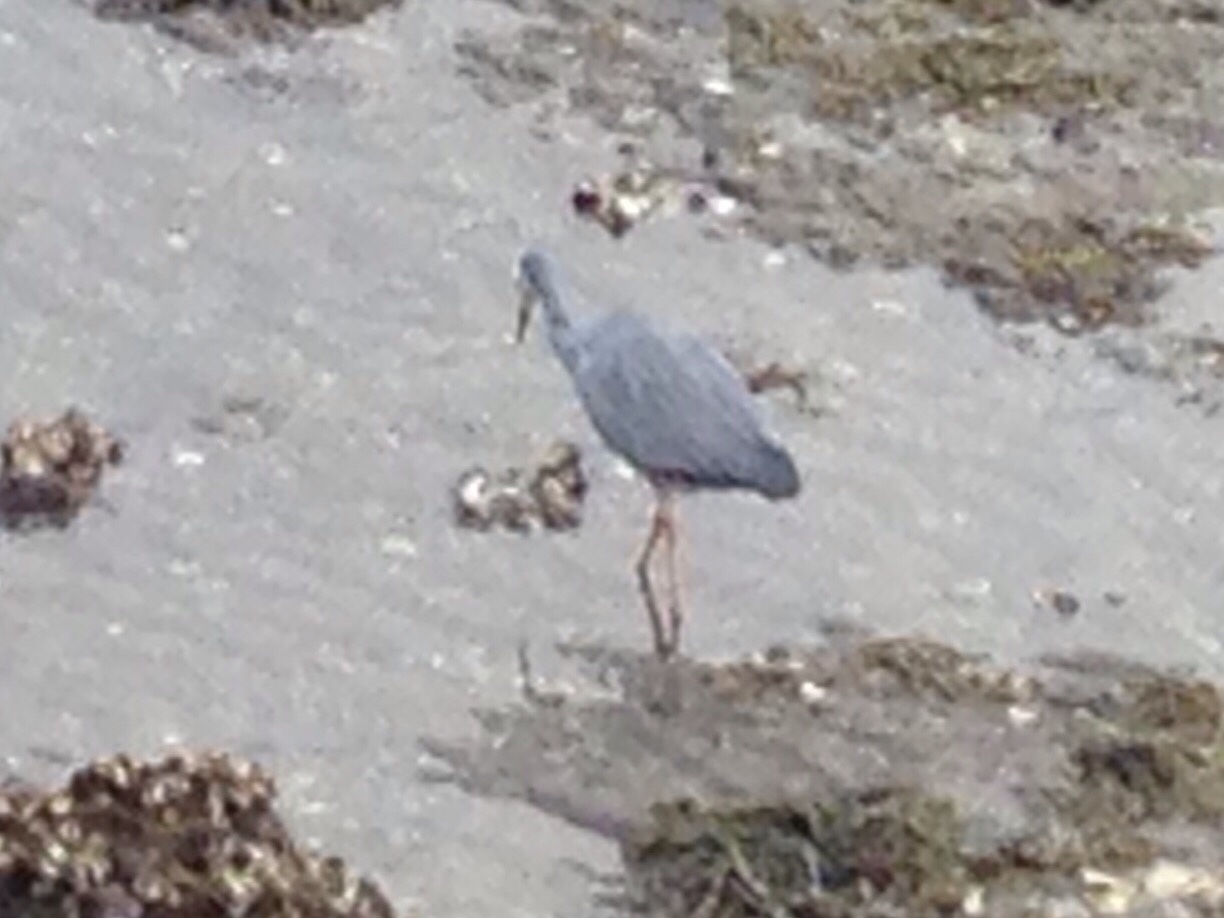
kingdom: Animalia
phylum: Chordata
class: Aves
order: Pelecaniformes
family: Ardeidae
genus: Egretta
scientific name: Egretta novaehollandiae
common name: White-faced heron
